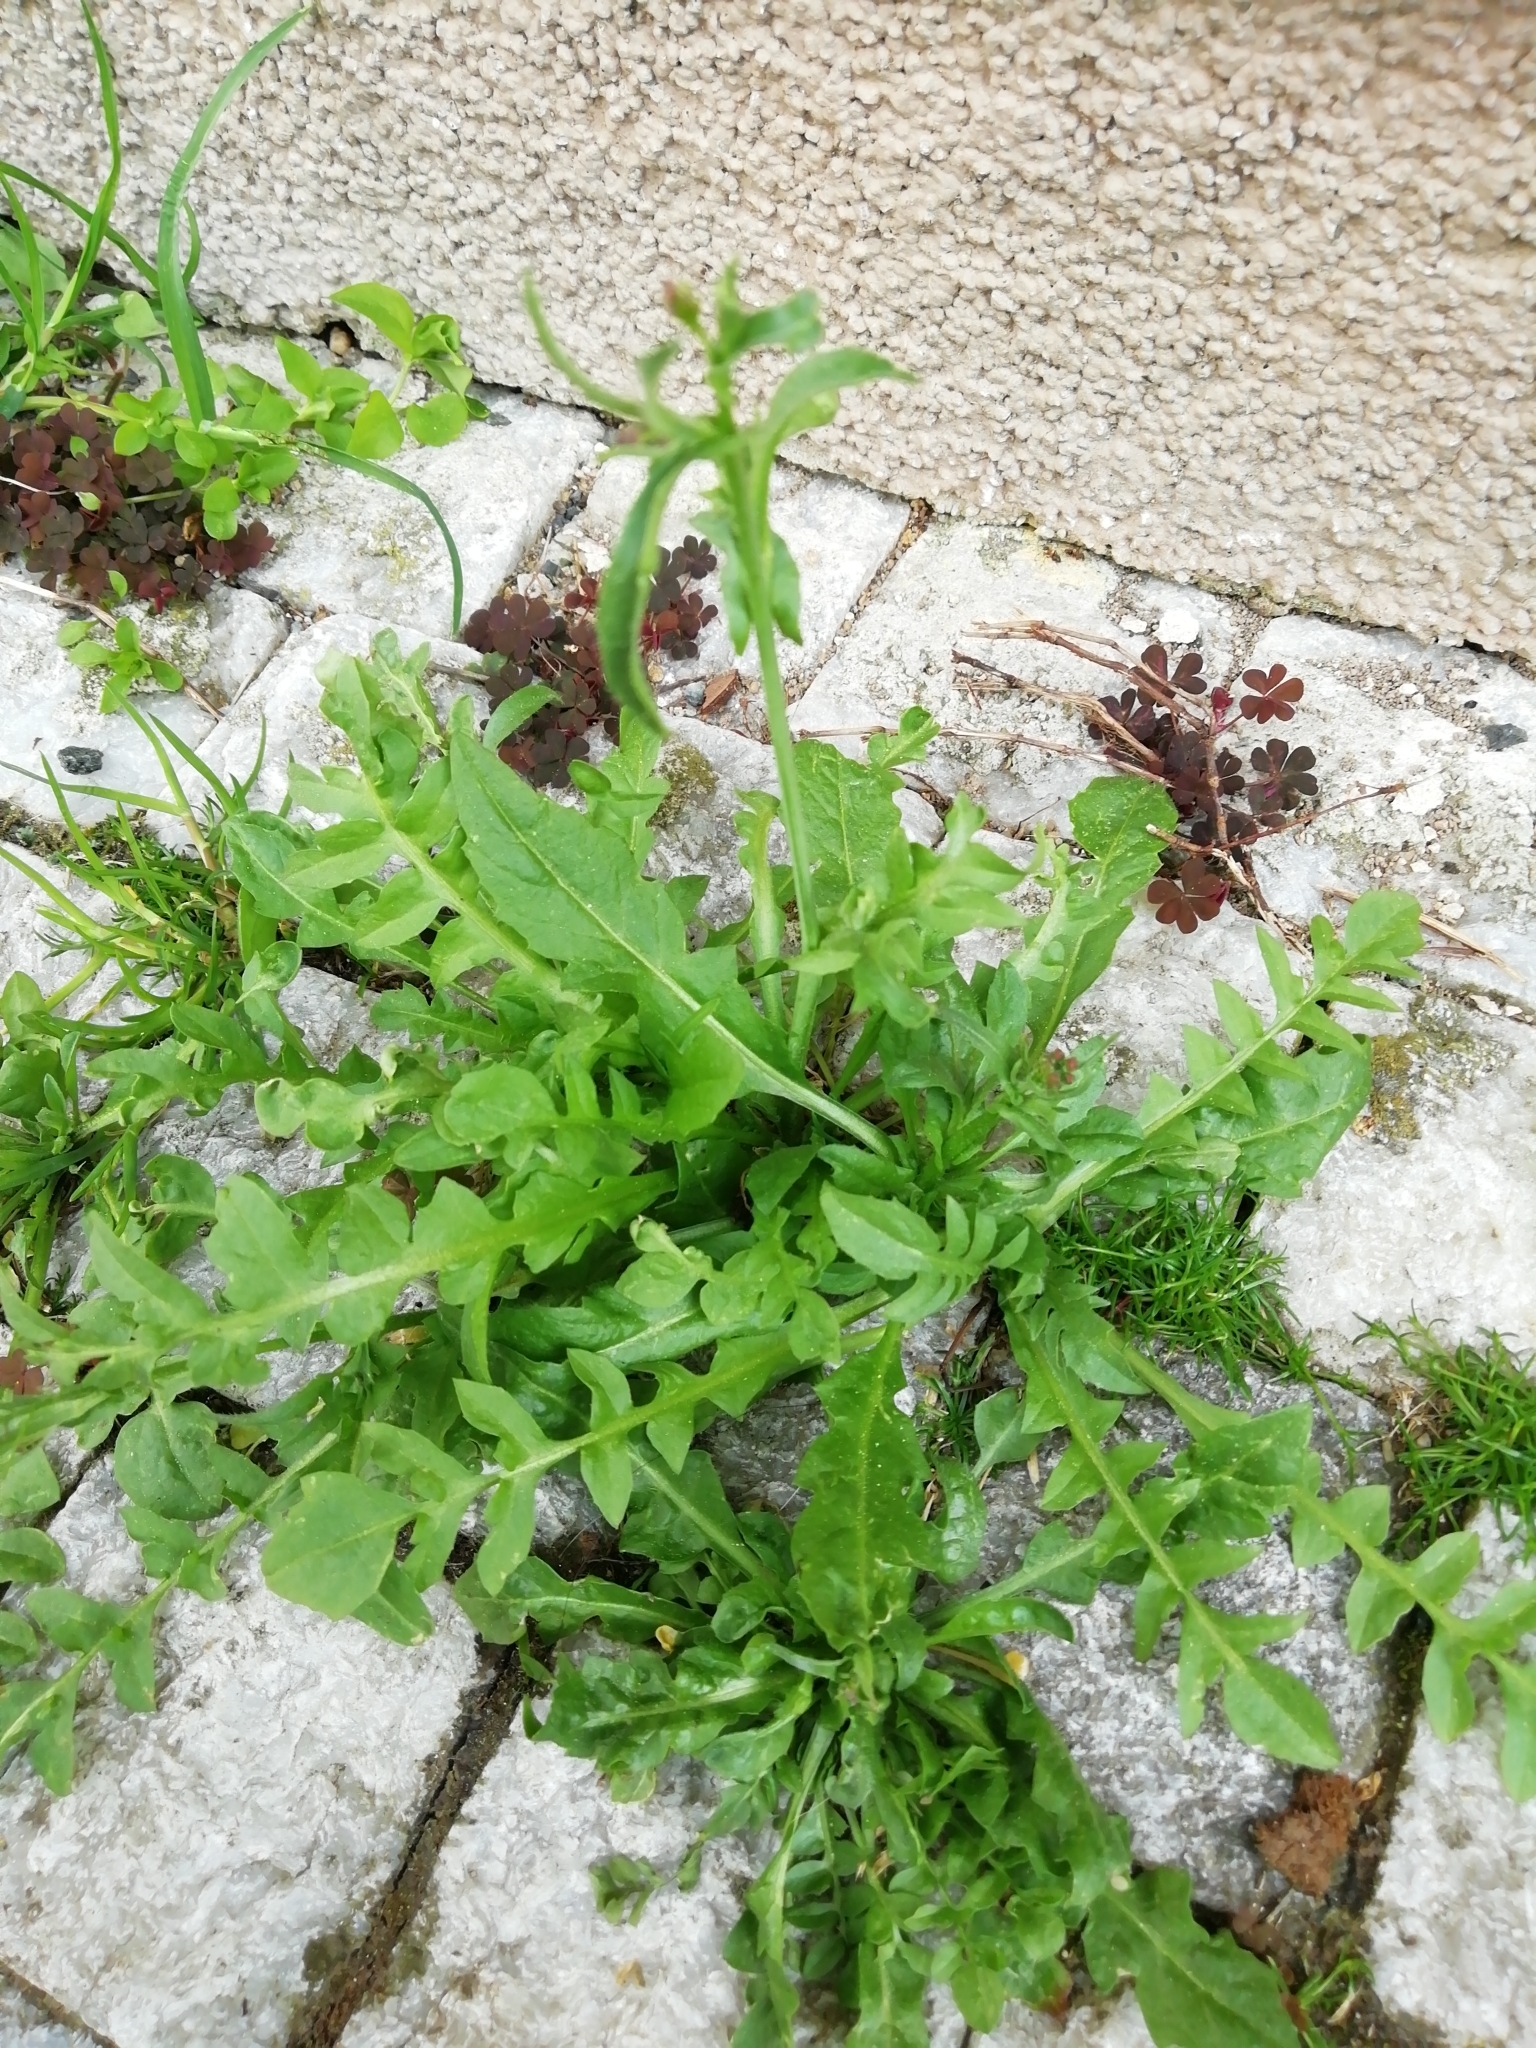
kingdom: Plantae
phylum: Tracheophyta
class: Magnoliopsida
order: Brassicales
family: Brassicaceae
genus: Capsella
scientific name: Capsella bursa-pastoris
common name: Shepherd's purse
